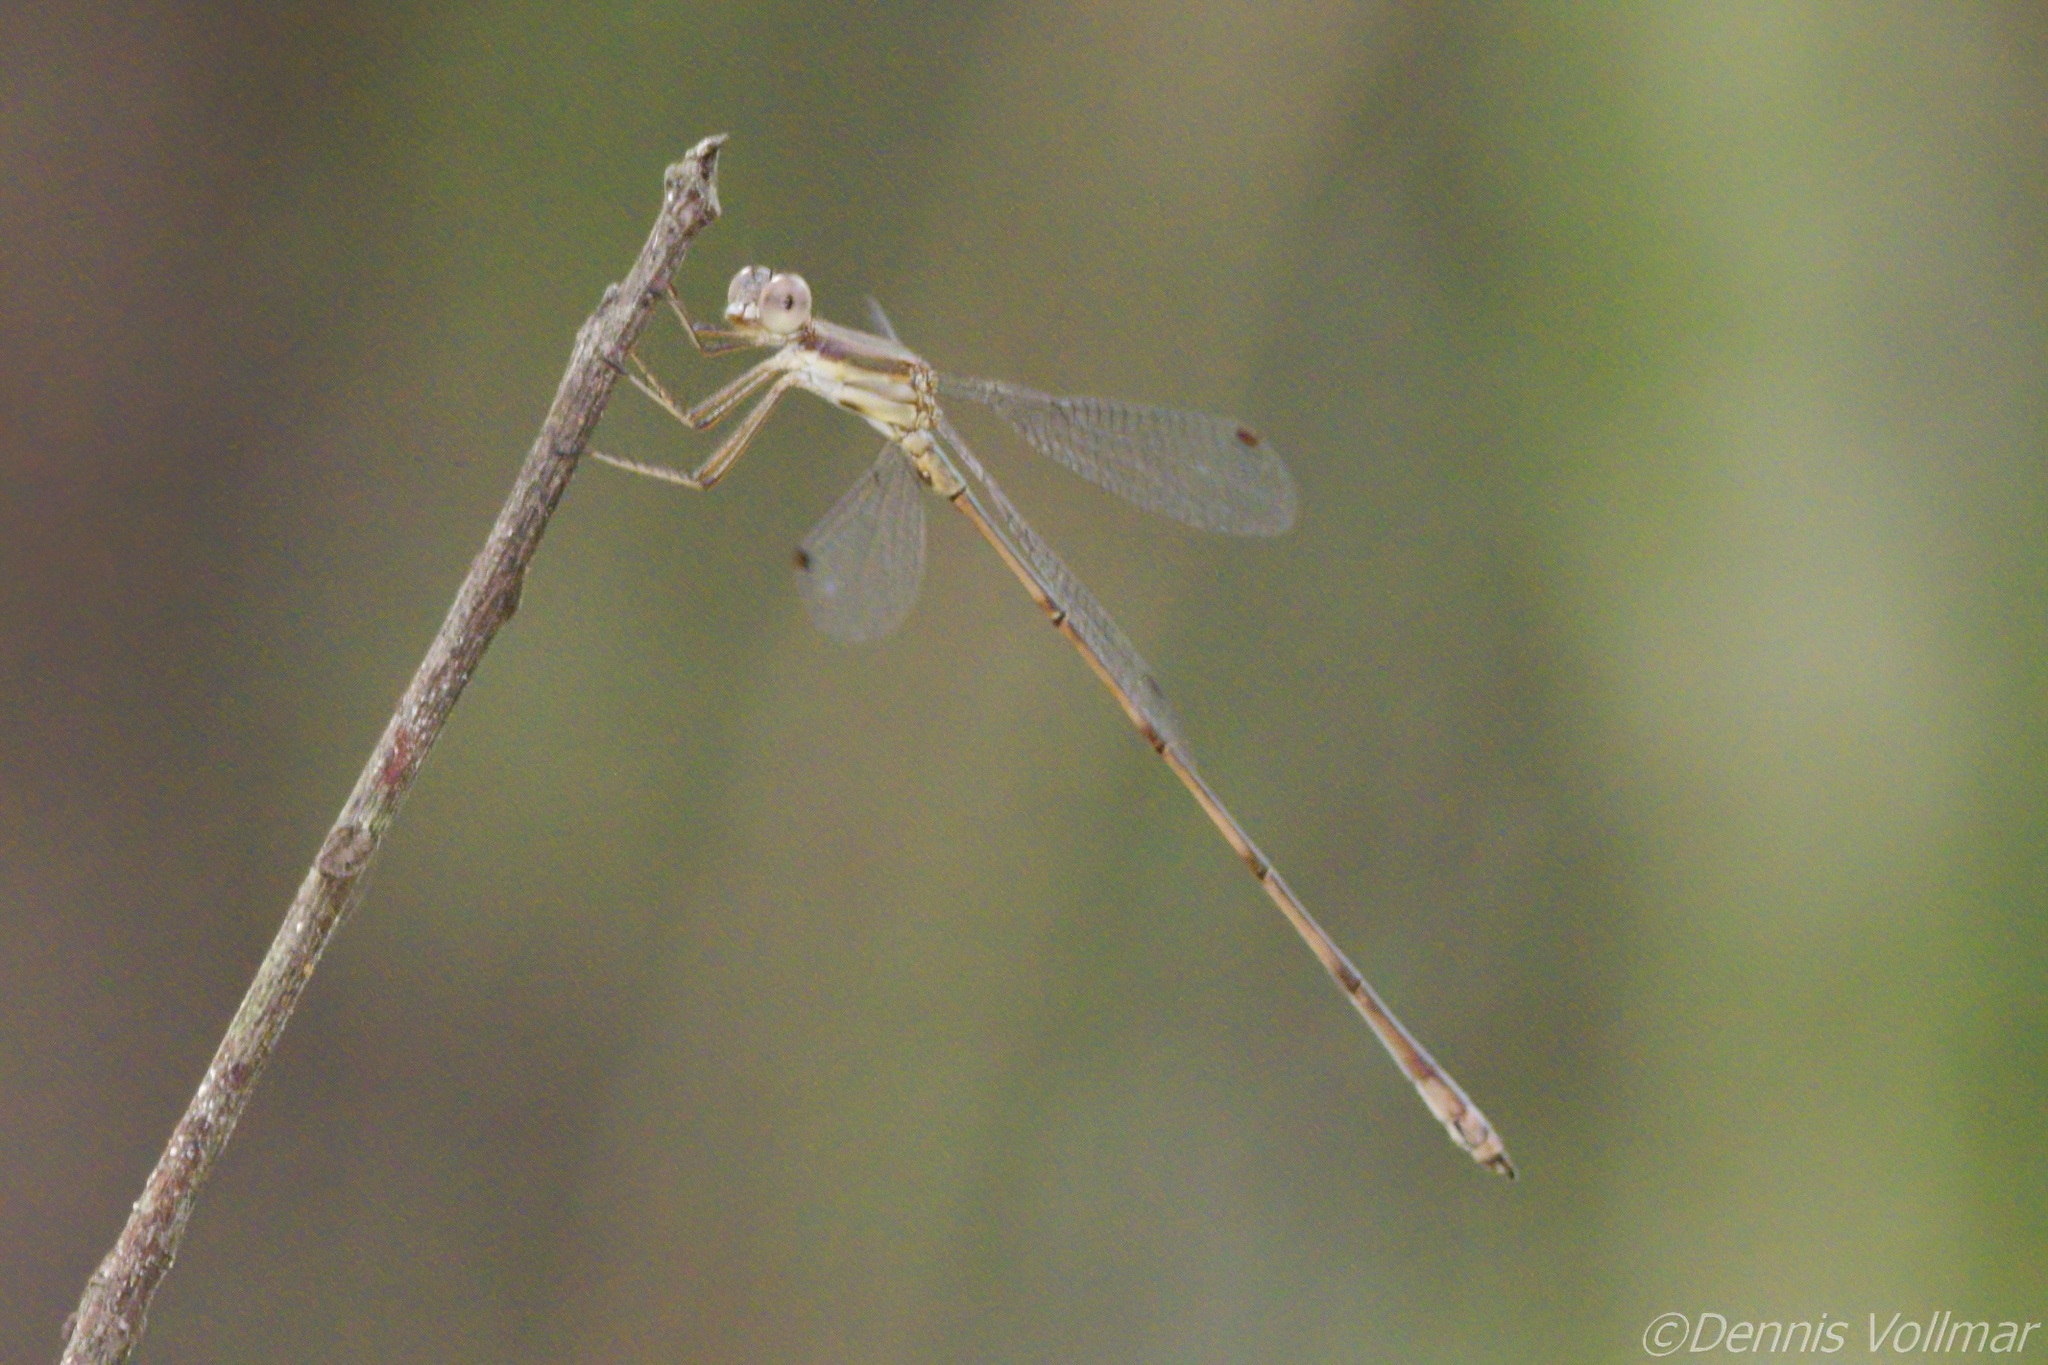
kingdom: Animalia
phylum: Arthropoda
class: Insecta
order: Odonata
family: Lestidae
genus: Lestes
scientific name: Lestes tenuatus
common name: Blue-striped spreadwing
